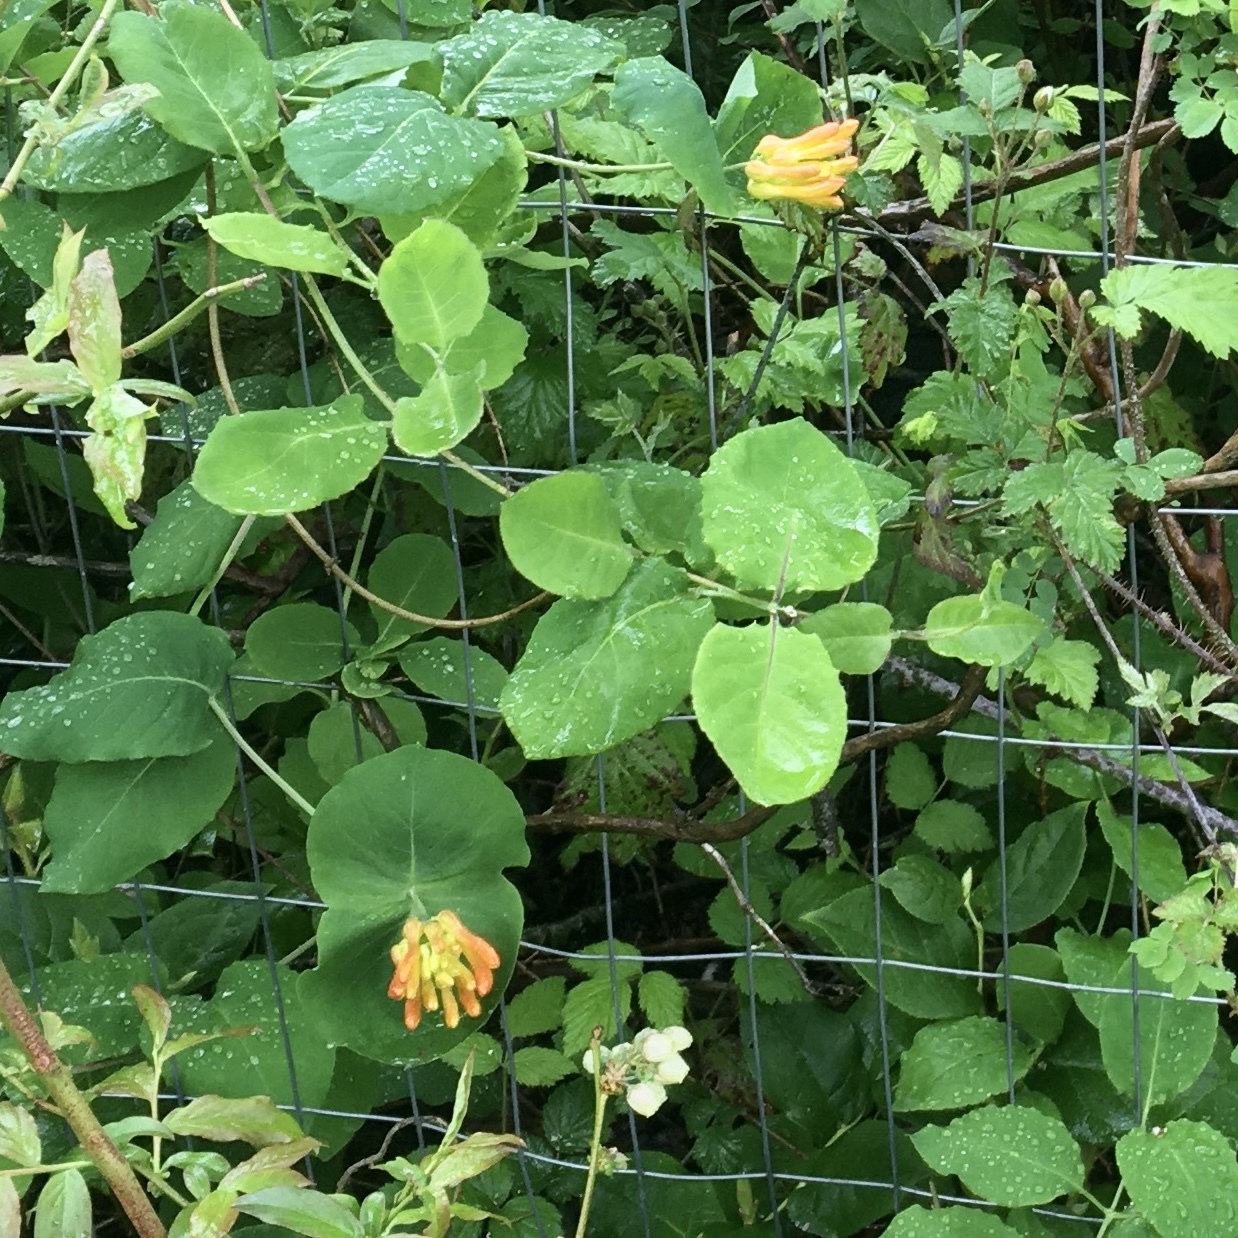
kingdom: Plantae
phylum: Tracheophyta
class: Magnoliopsida
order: Dipsacales
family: Caprifoliaceae
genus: Lonicera
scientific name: Lonicera ciliosa
